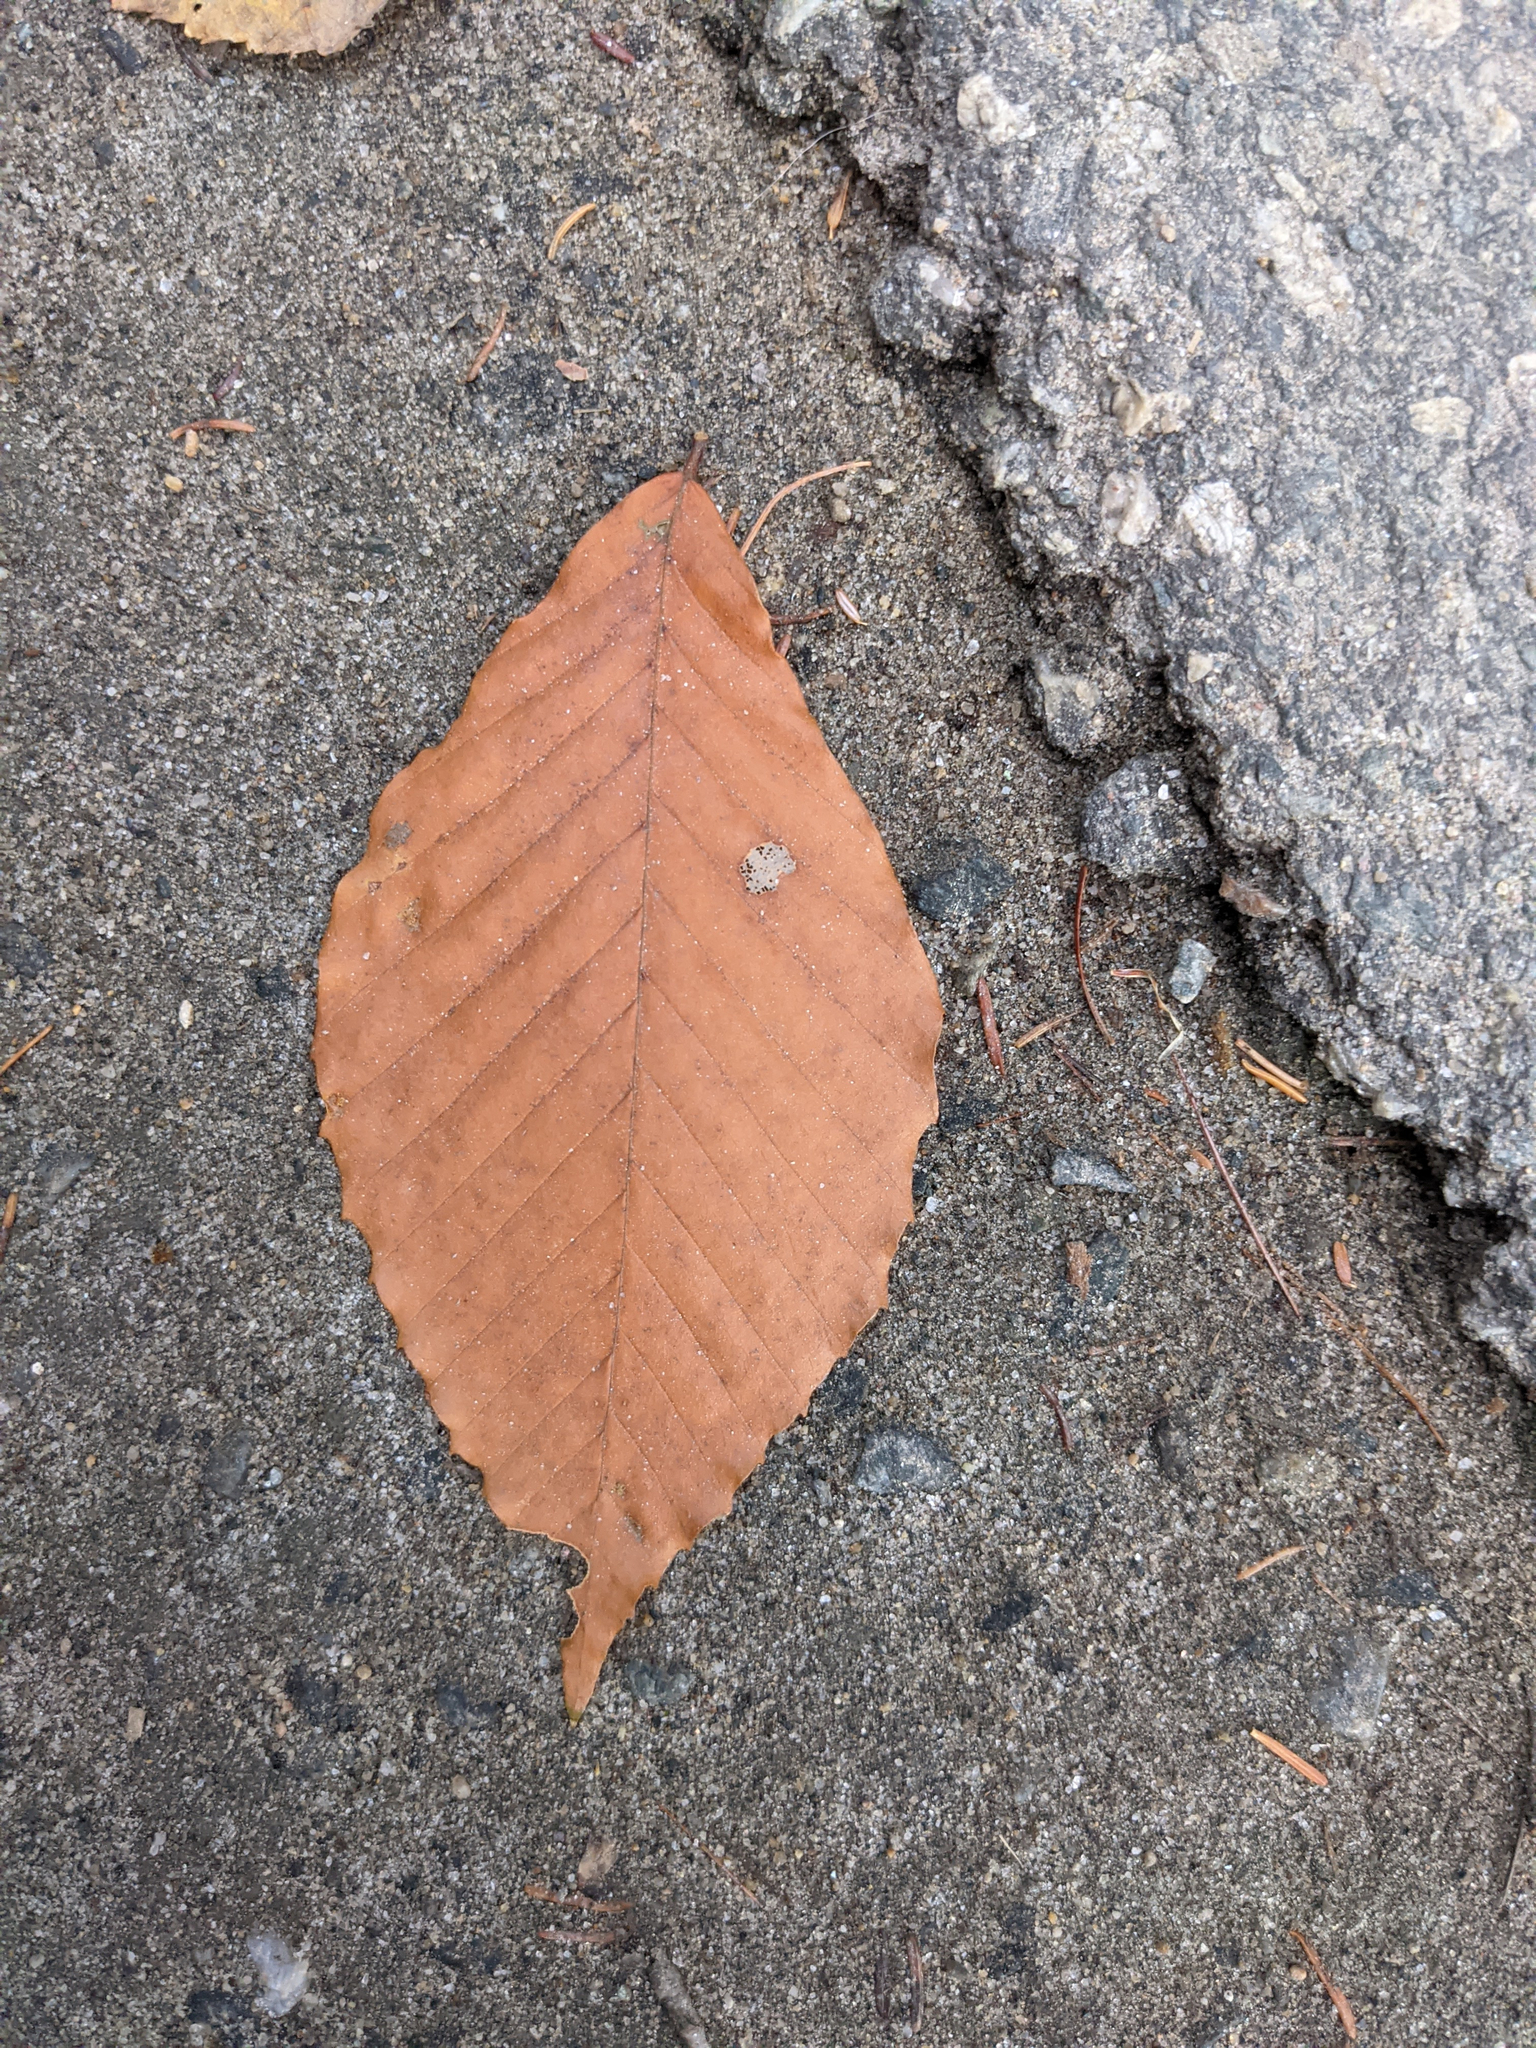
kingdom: Plantae
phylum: Tracheophyta
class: Magnoliopsida
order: Fagales
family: Fagaceae
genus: Fagus
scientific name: Fagus grandifolia
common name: American beech
